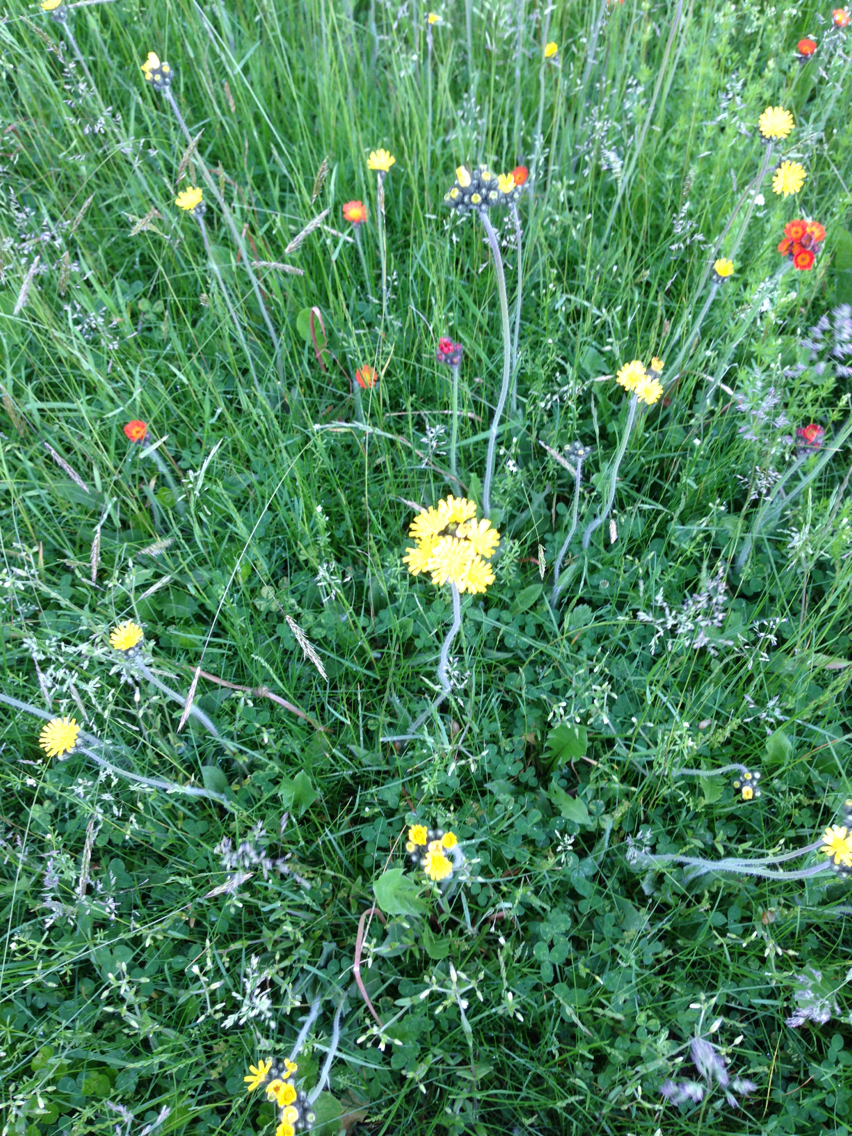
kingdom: Plantae
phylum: Tracheophyta
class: Magnoliopsida
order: Asterales
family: Asteraceae
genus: Pilosella
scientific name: Pilosella caespitosa
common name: Yellow fox-and-cubs
